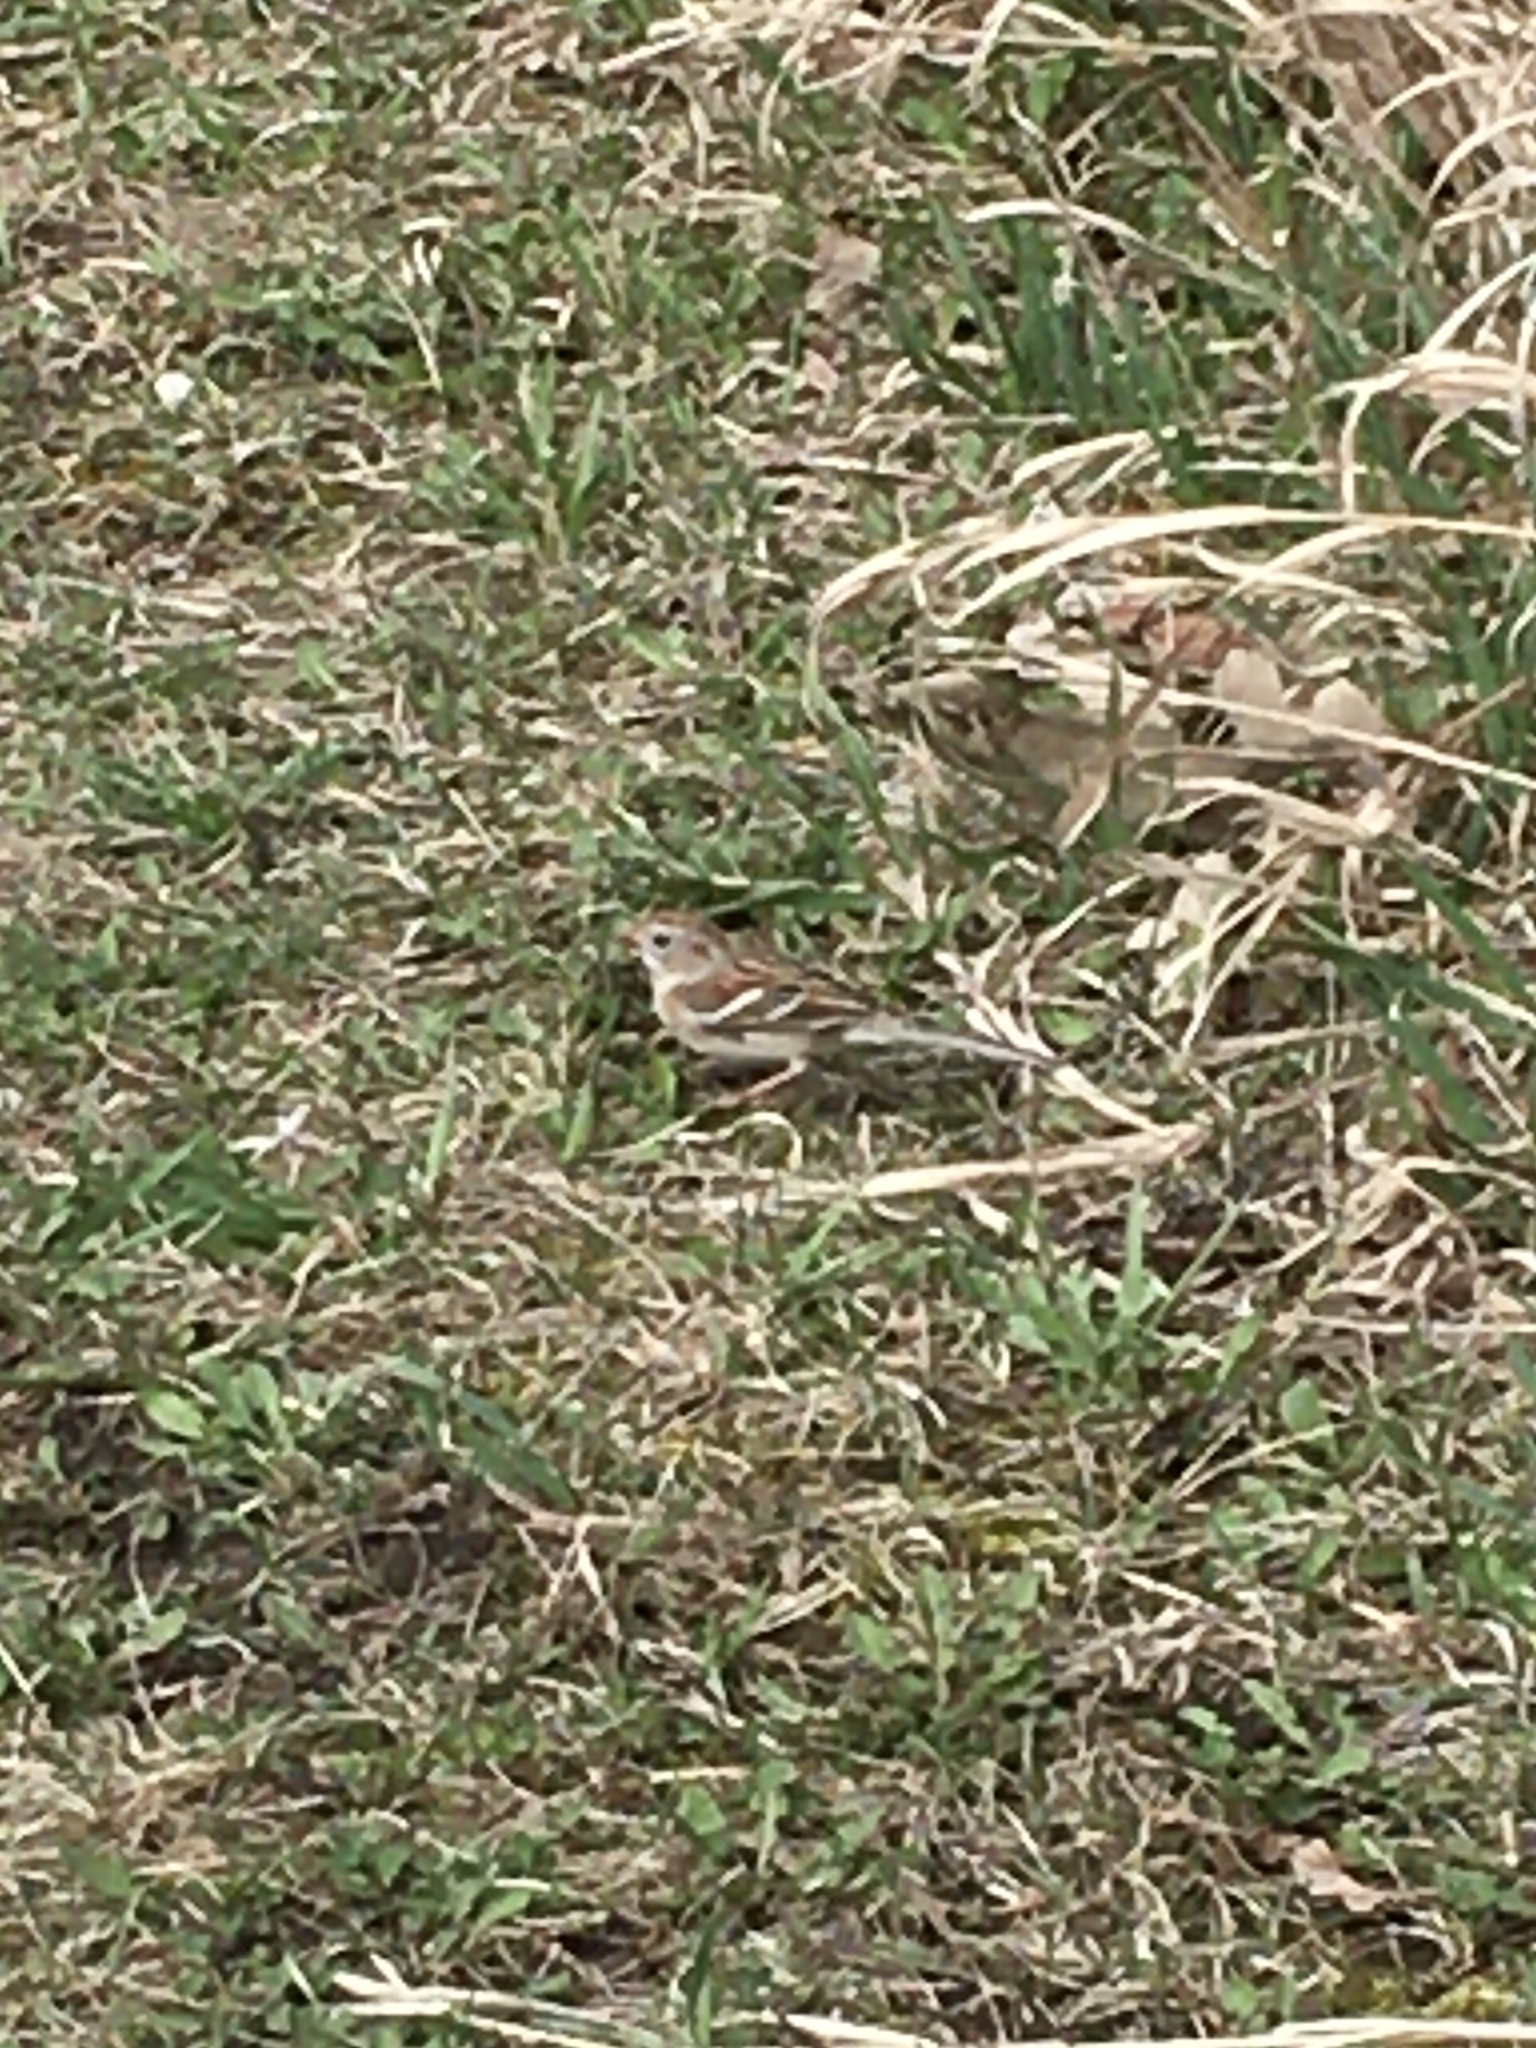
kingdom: Animalia
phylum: Chordata
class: Aves
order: Passeriformes
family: Passerellidae
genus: Spizella
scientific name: Spizella pusilla
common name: Field sparrow
